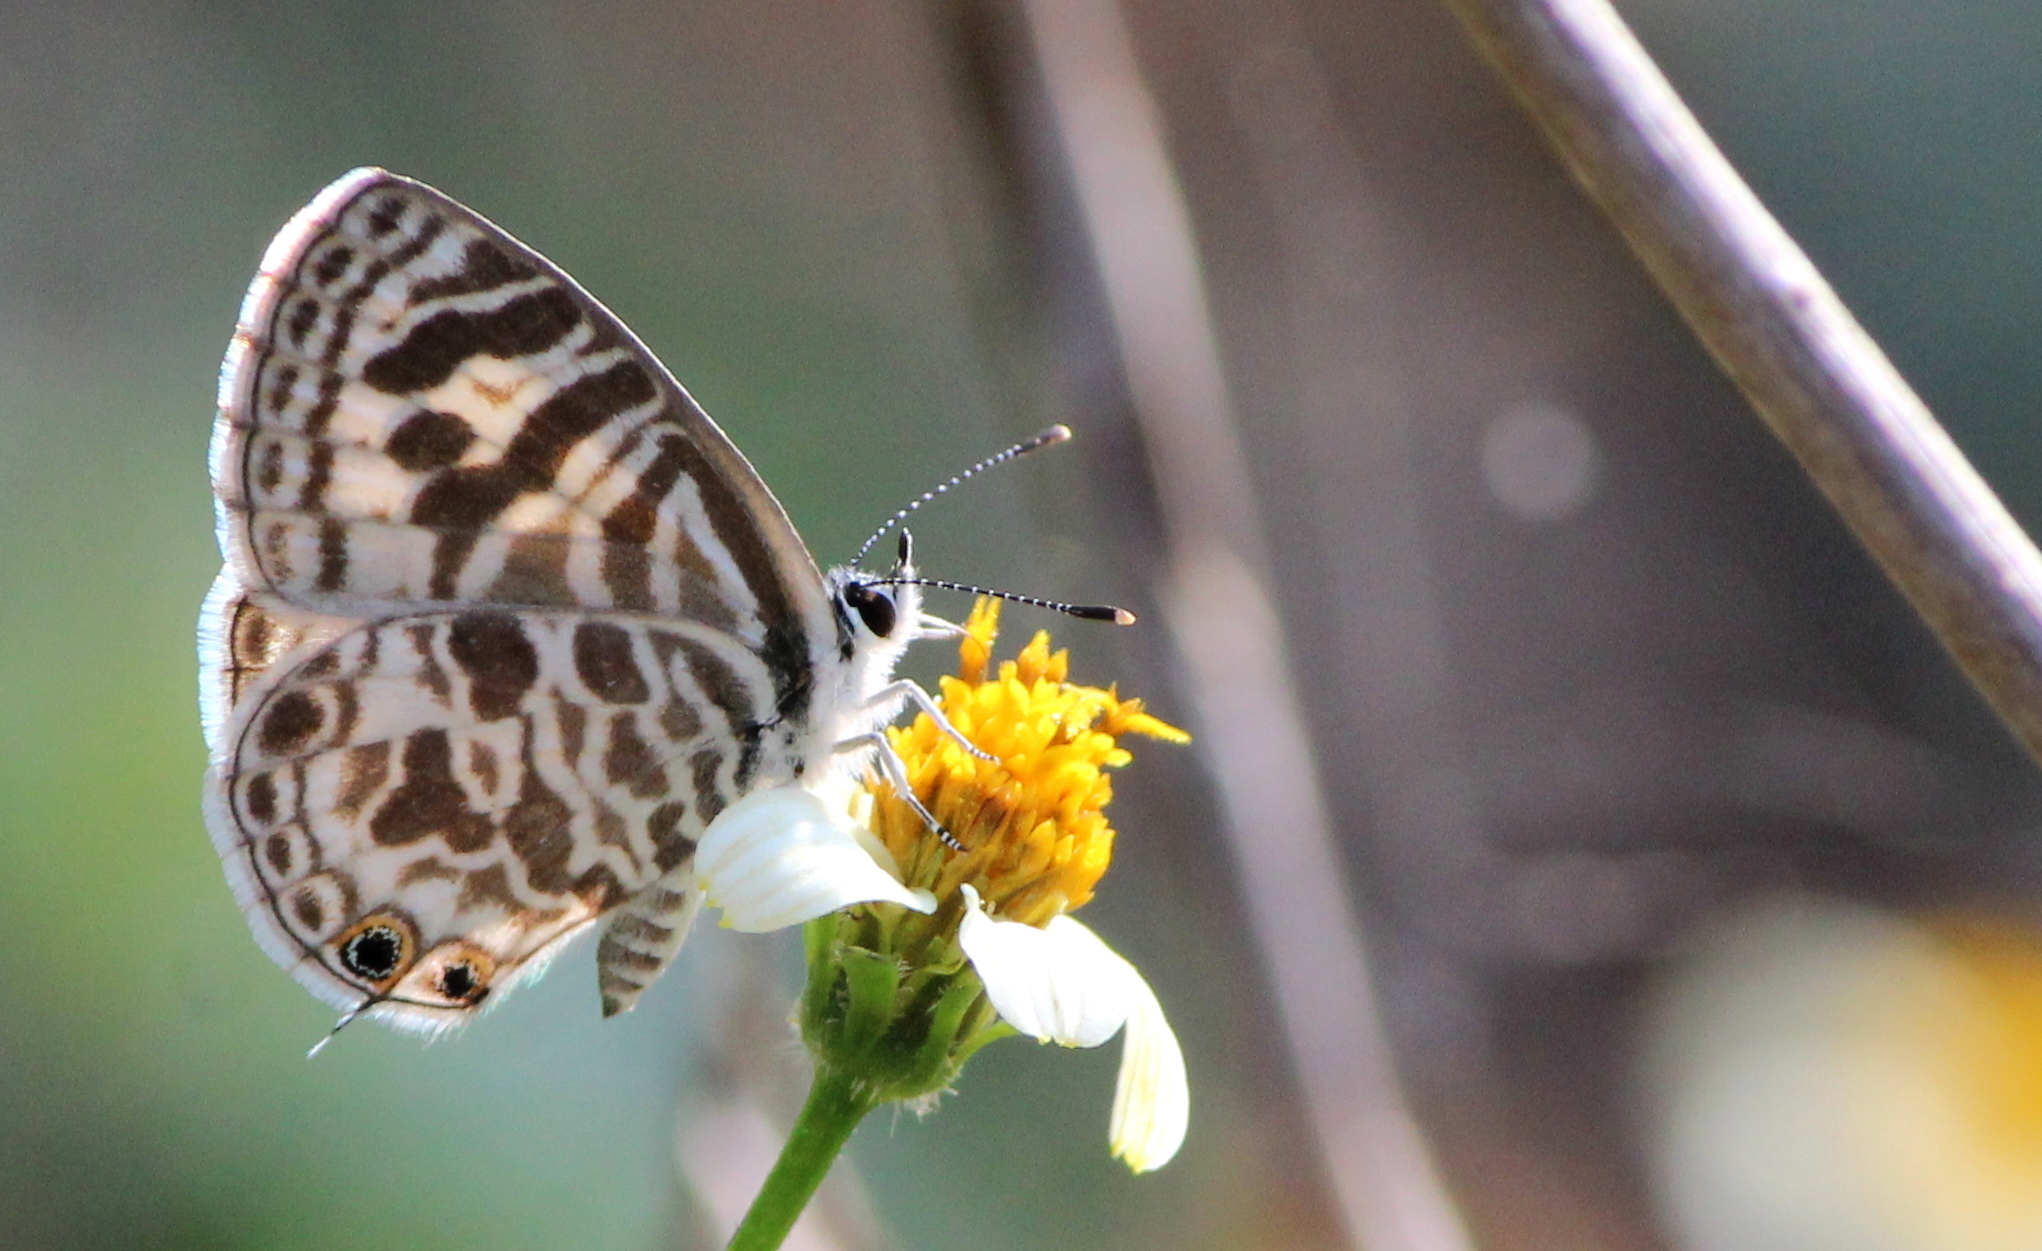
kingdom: Animalia
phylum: Arthropoda
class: Insecta
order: Lepidoptera
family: Lycaenidae
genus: Leptotes
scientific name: Leptotes plinius
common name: Zebra blue
